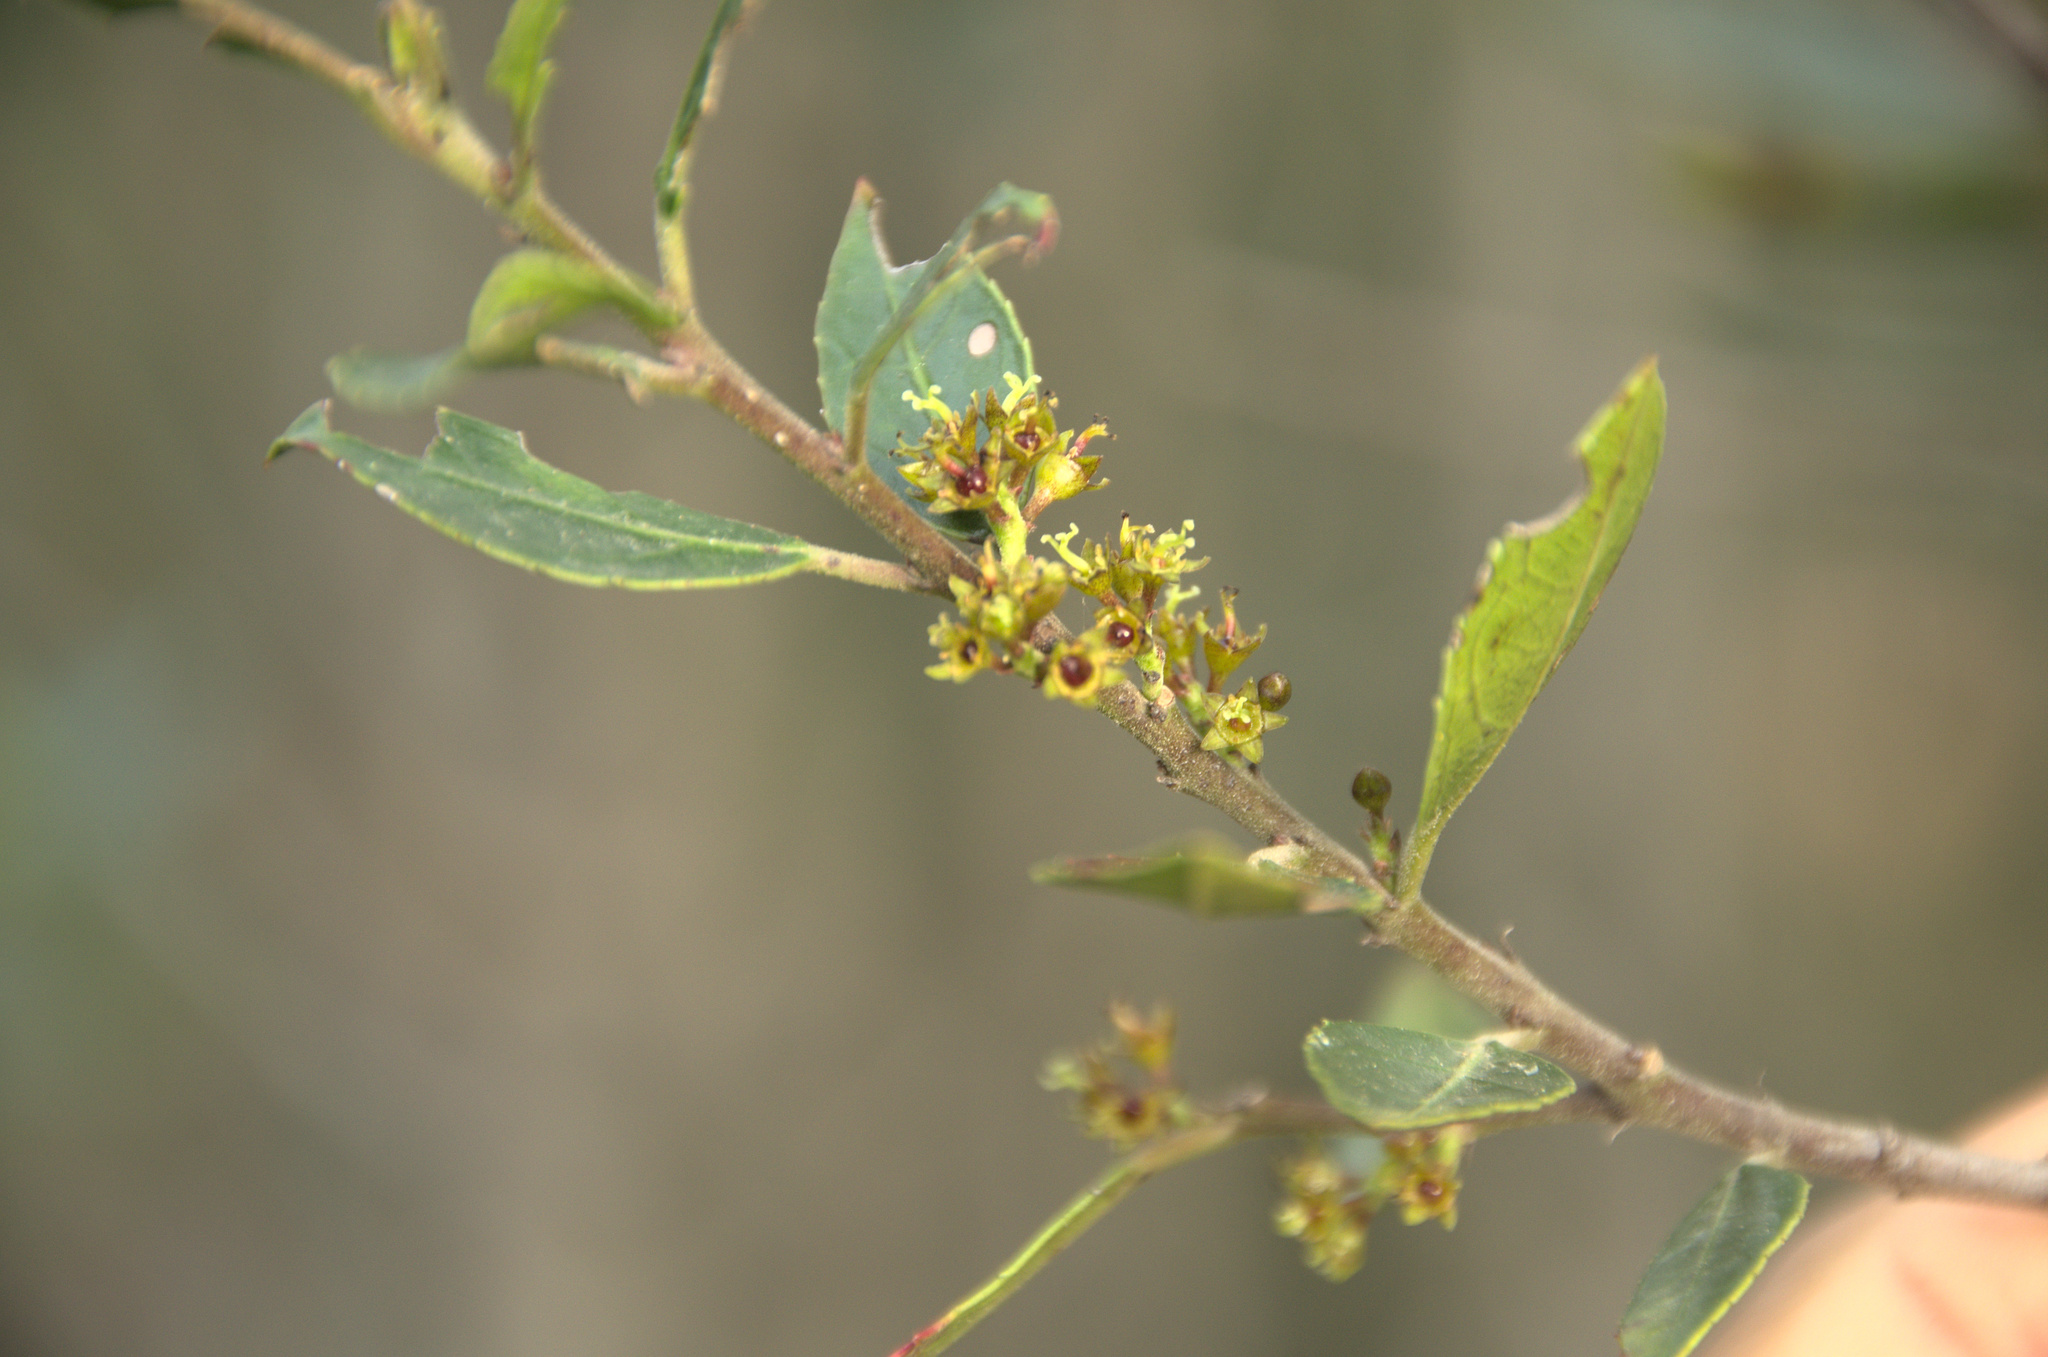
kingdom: Plantae
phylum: Tracheophyta
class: Magnoliopsida
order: Rosales
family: Rhamnaceae
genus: Rhamnus
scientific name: Rhamnus alaternus
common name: Mediterranean buckthorn
